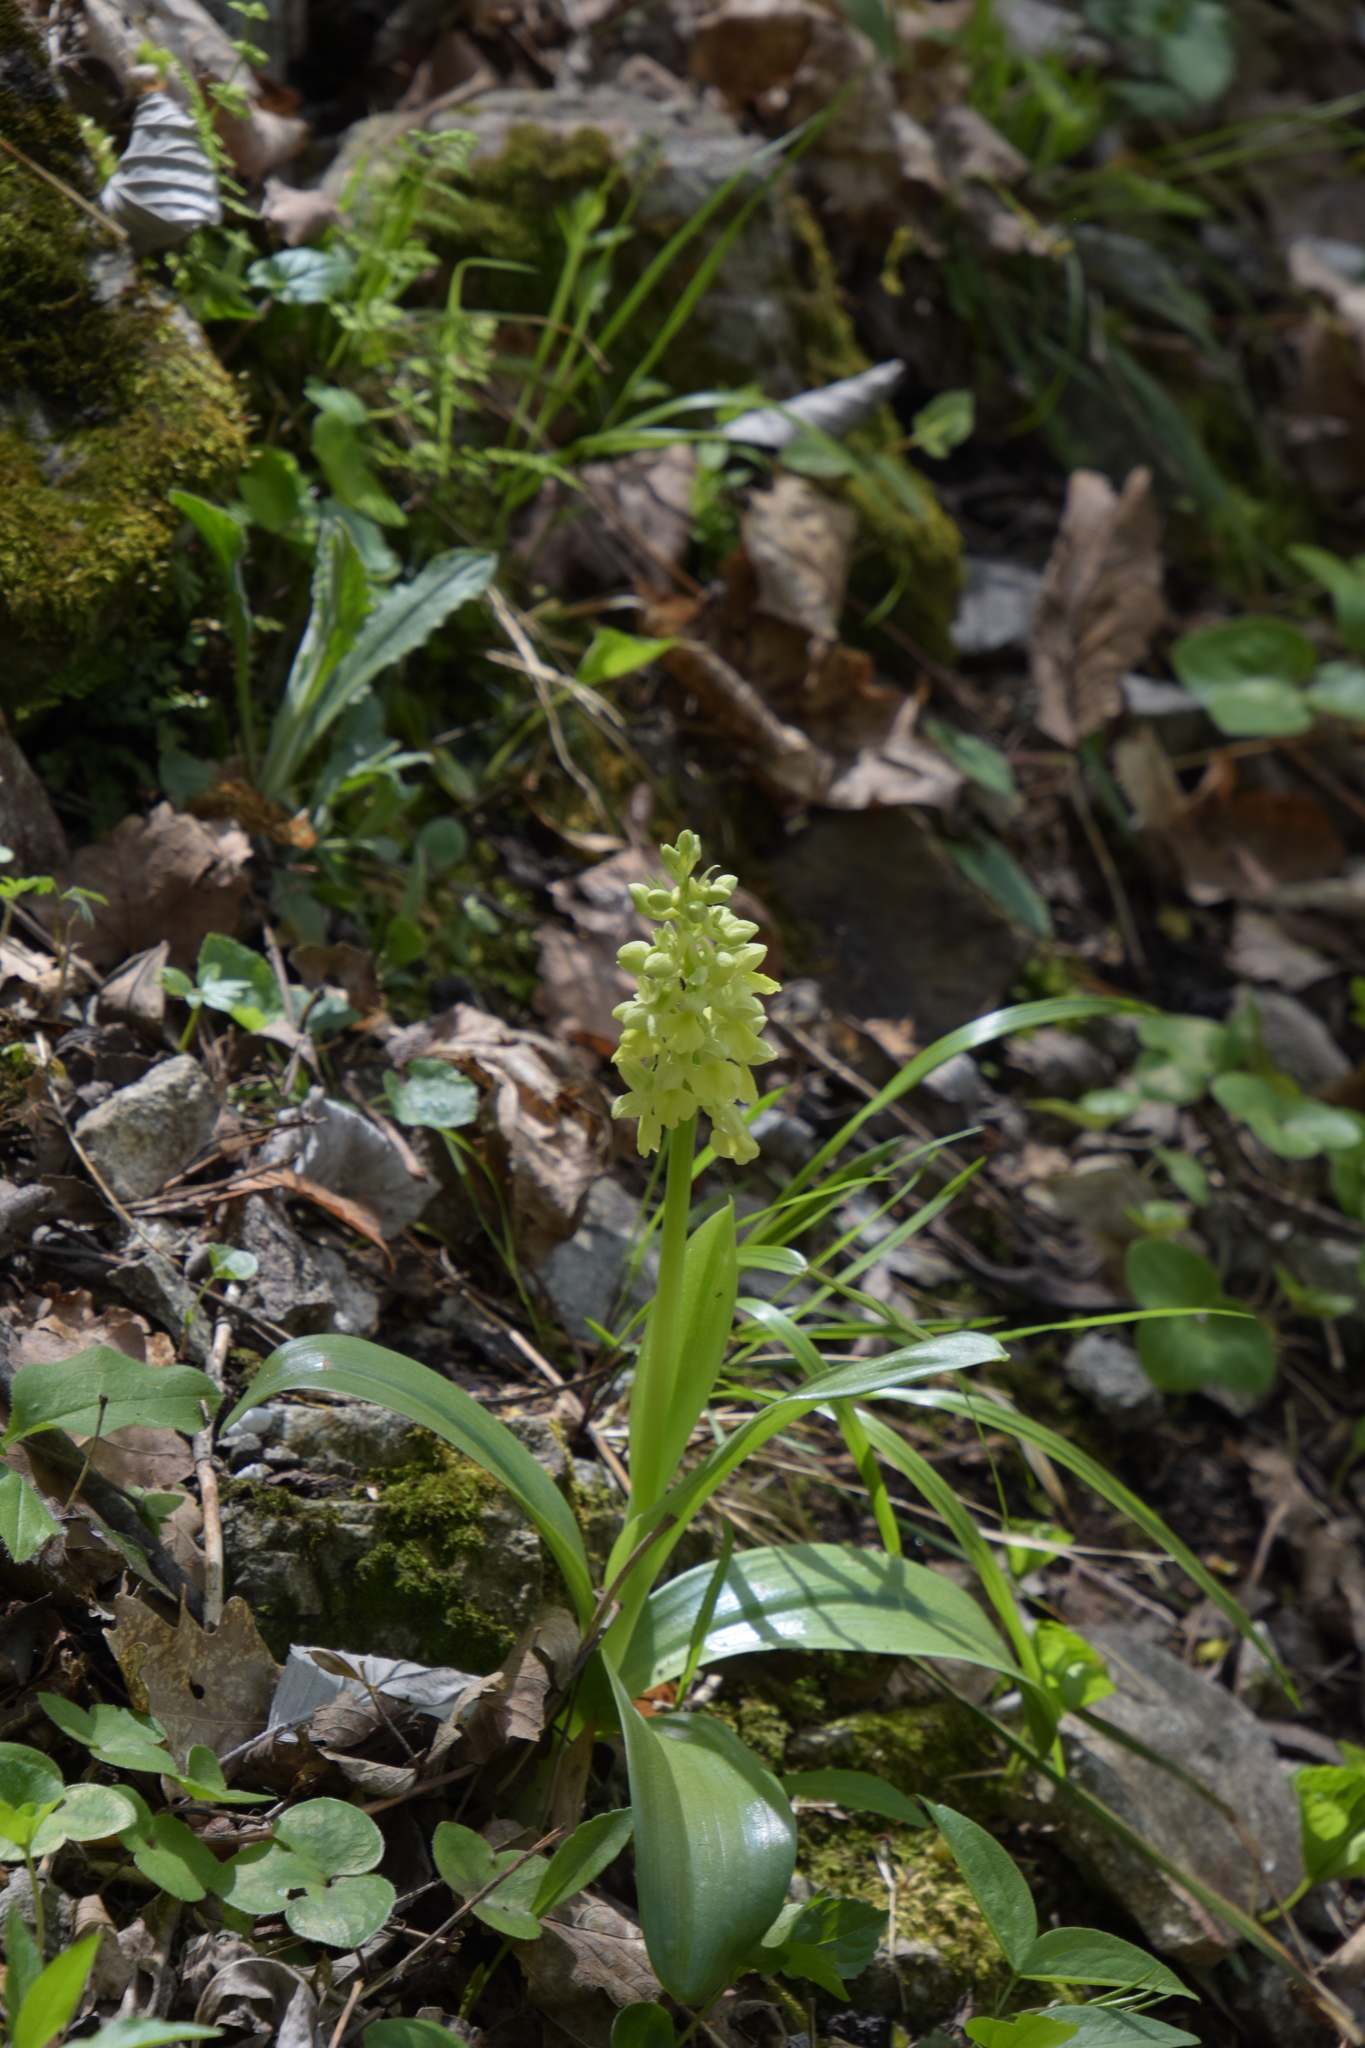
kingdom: Plantae
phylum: Tracheophyta
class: Liliopsida
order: Asparagales
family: Orchidaceae
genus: Orchis
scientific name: Orchis pallens
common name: Pale-flowered orchid
